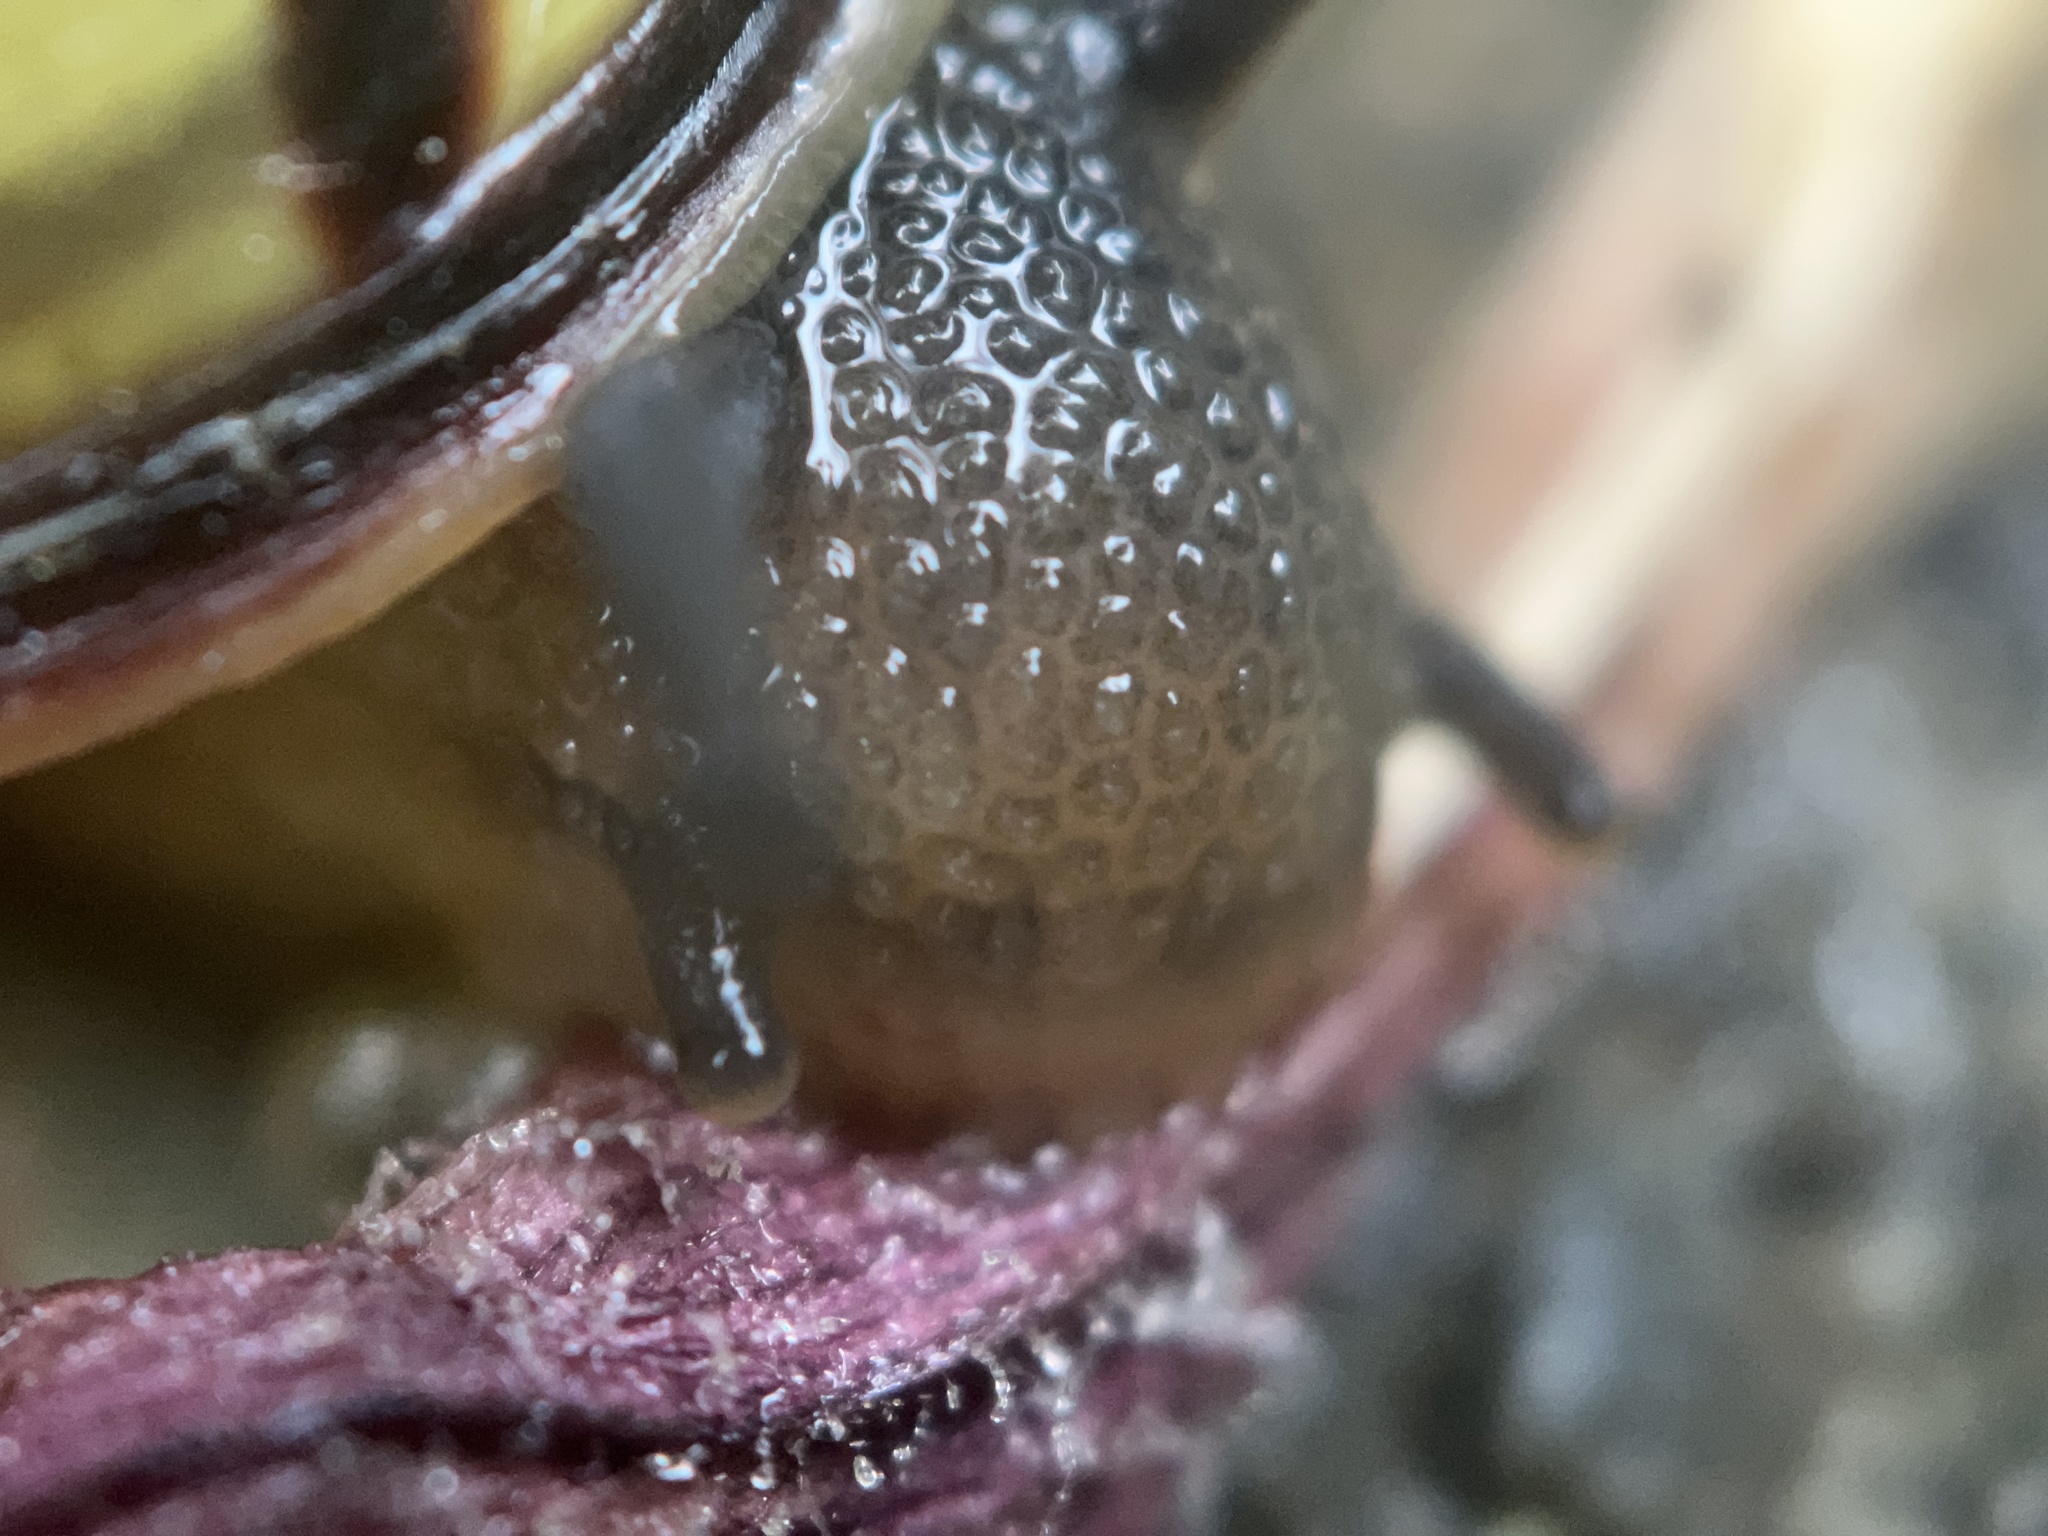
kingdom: Animalia
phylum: Mollusca
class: Gastropoda
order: Stylommatophora
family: Helicidae
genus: Cepaea
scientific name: Cepaea nemoralis
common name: Grovesnail
